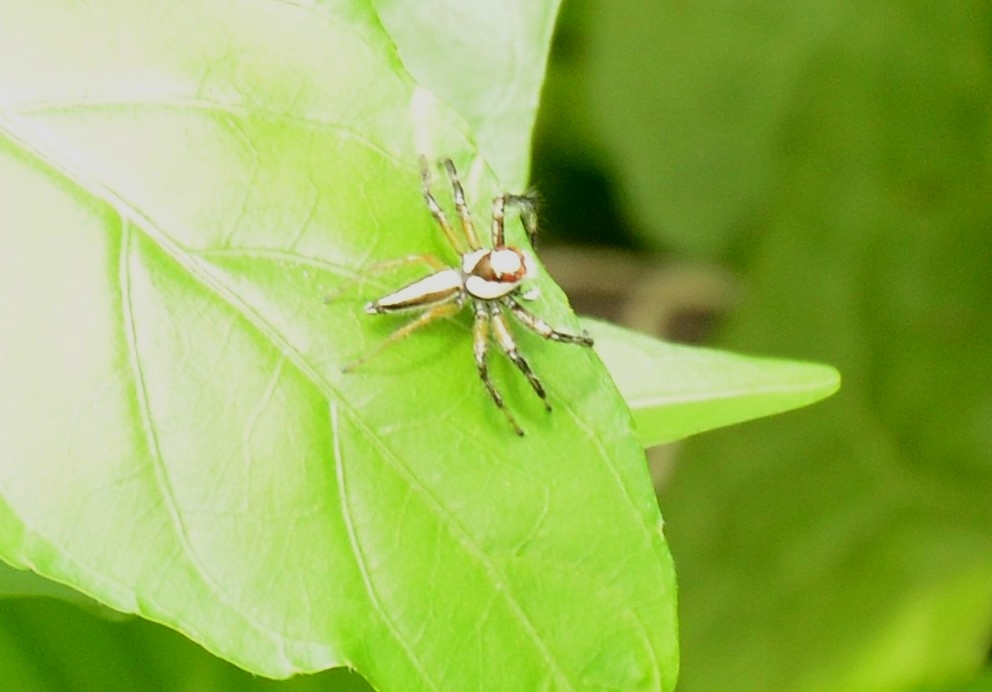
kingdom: Animalia
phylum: Arthropoda
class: Arachnida
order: Araneae
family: Salticidae
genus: Telamonia
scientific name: Telamonia dimidiata
